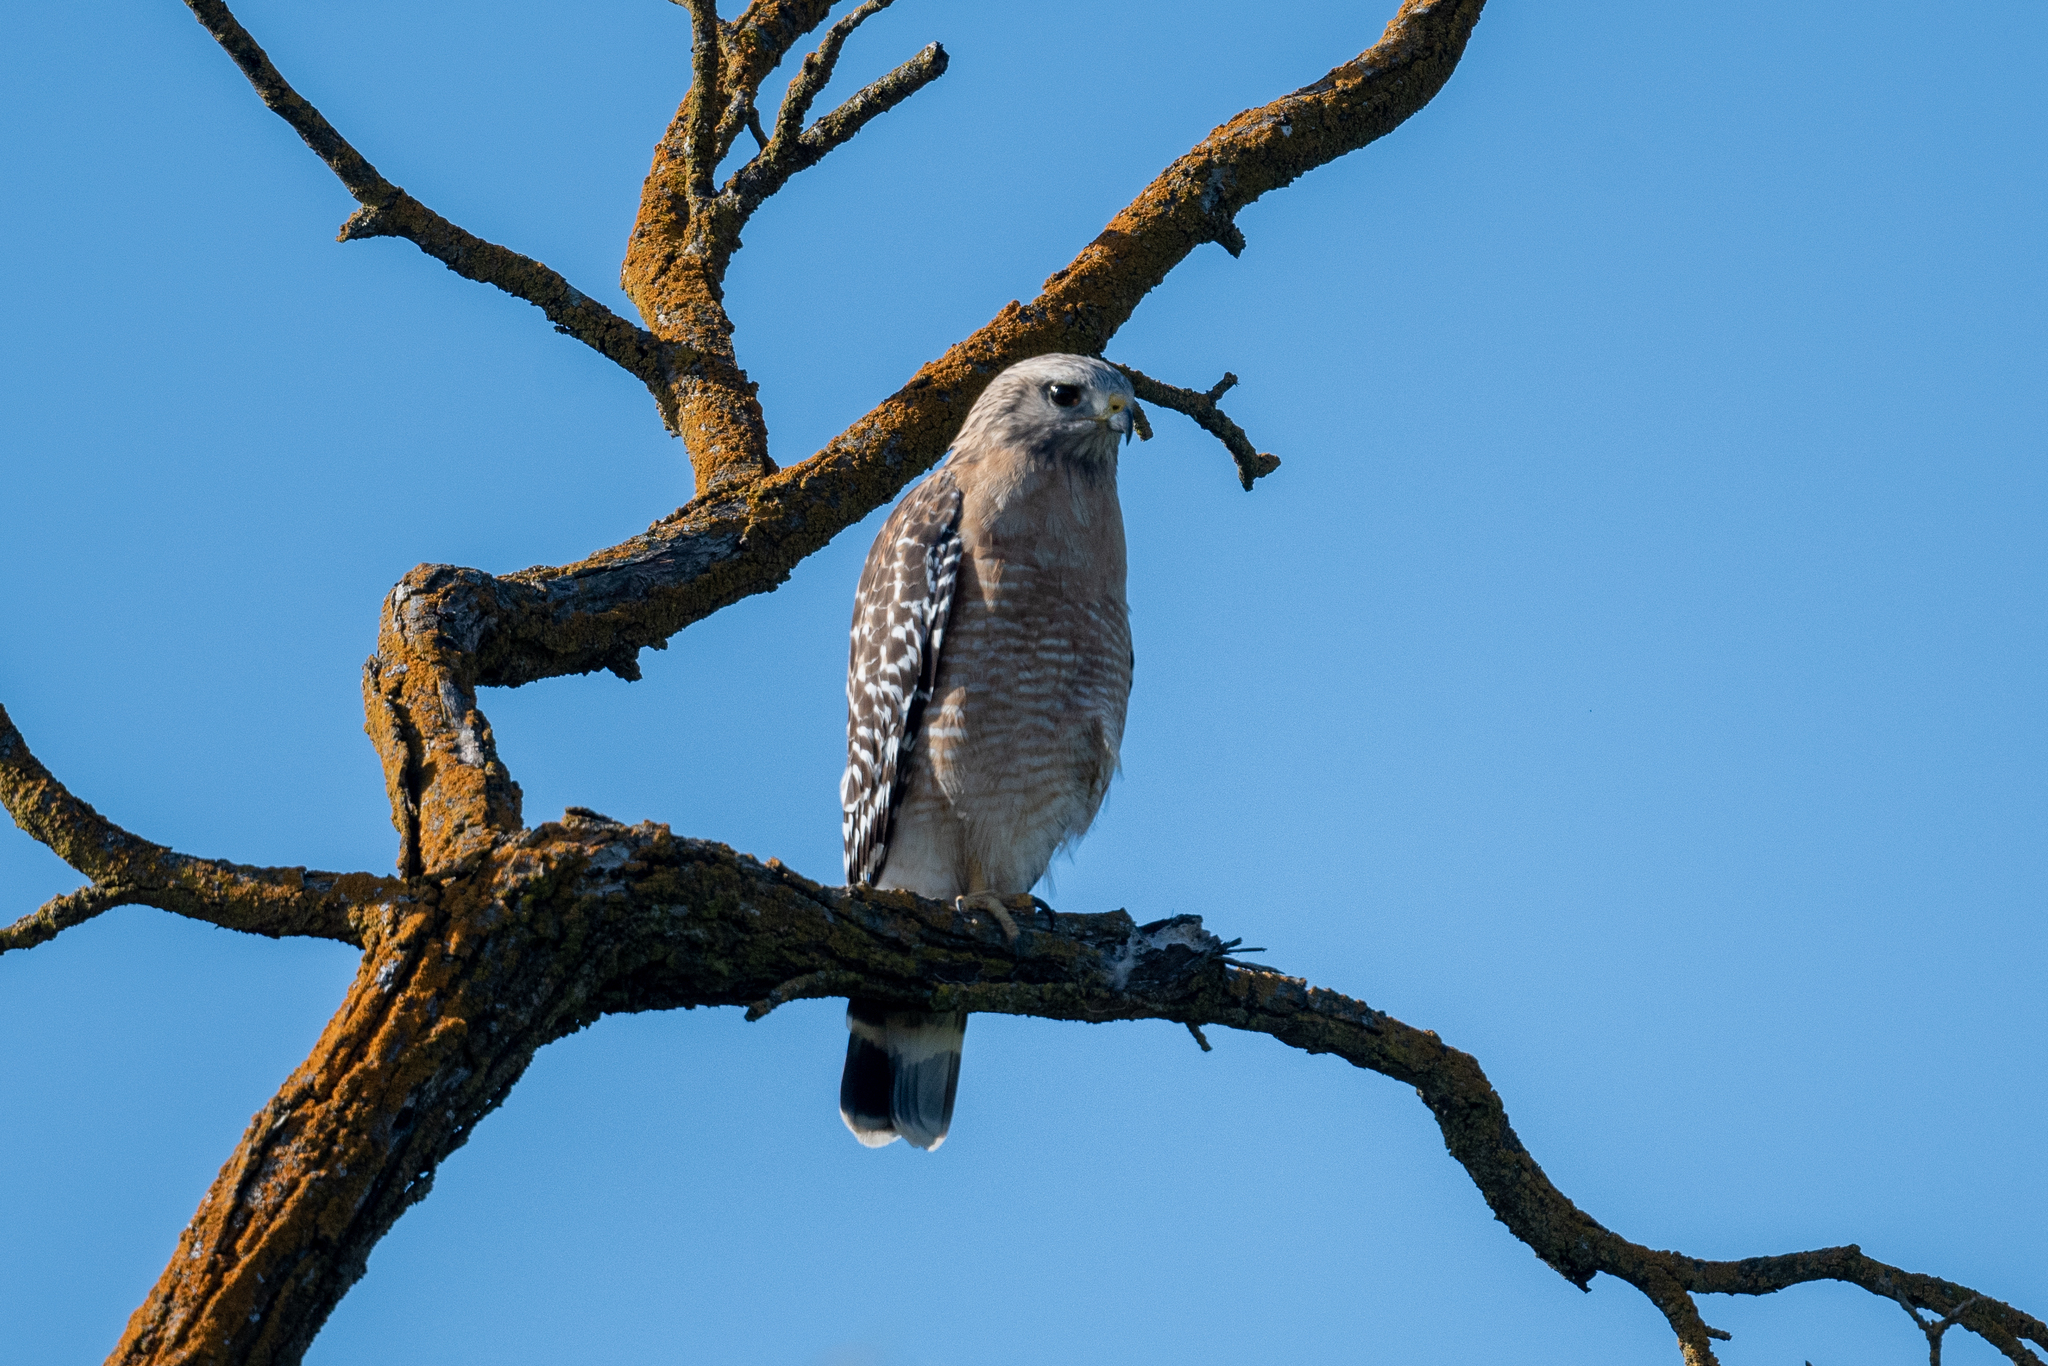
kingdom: Animalia
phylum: Chordata
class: Aves
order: Accipitriformes
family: Accipitridae
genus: Buteo
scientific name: Buteo lineatus
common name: Red-shouldered hawk
